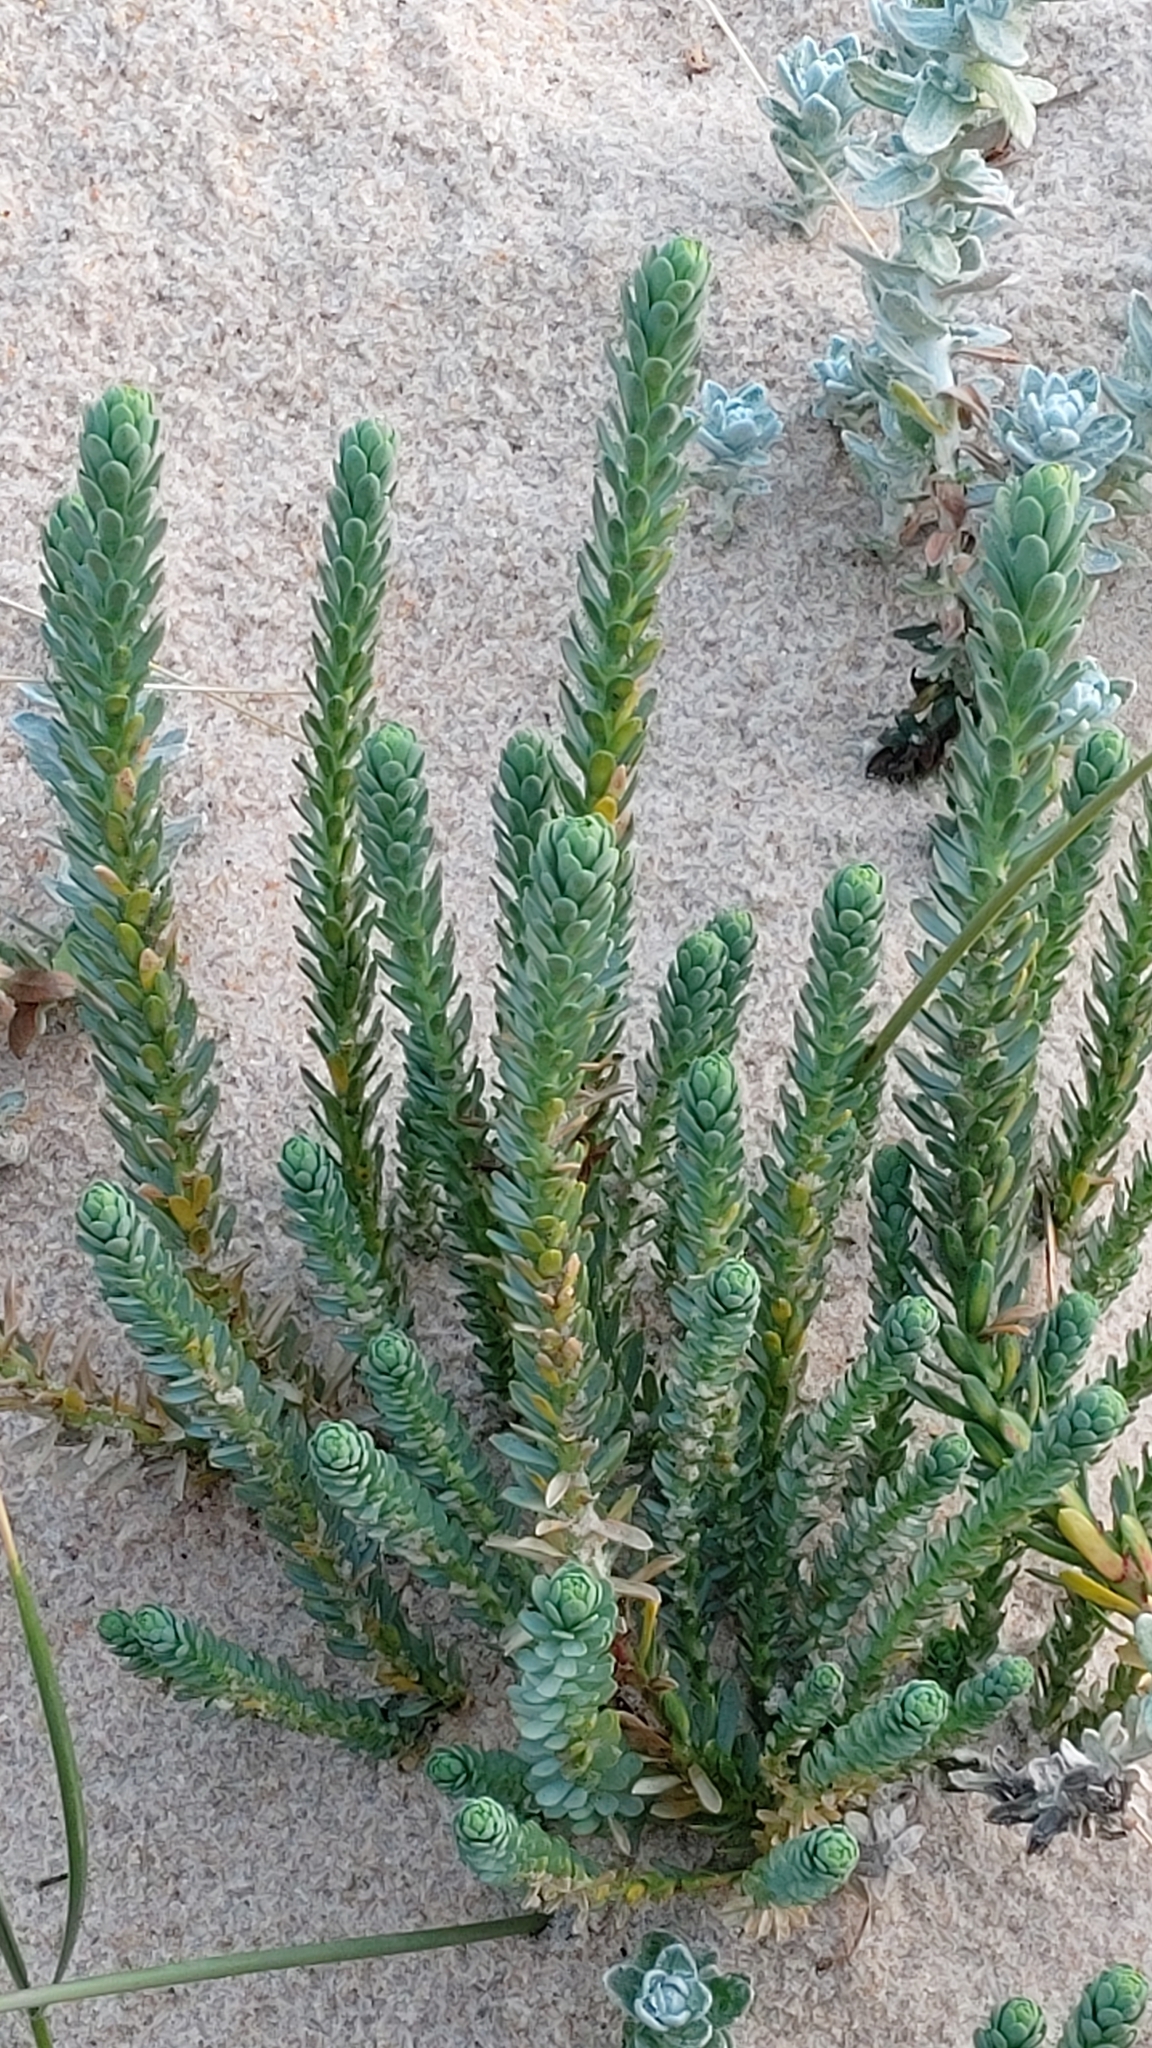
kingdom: Plantae
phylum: Tracheophyta
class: Magnoliopsida
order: Malpighiales
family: Euphorbiaceae
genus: Euphorbia
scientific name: Euphorbia paralias
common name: Sea spurge
